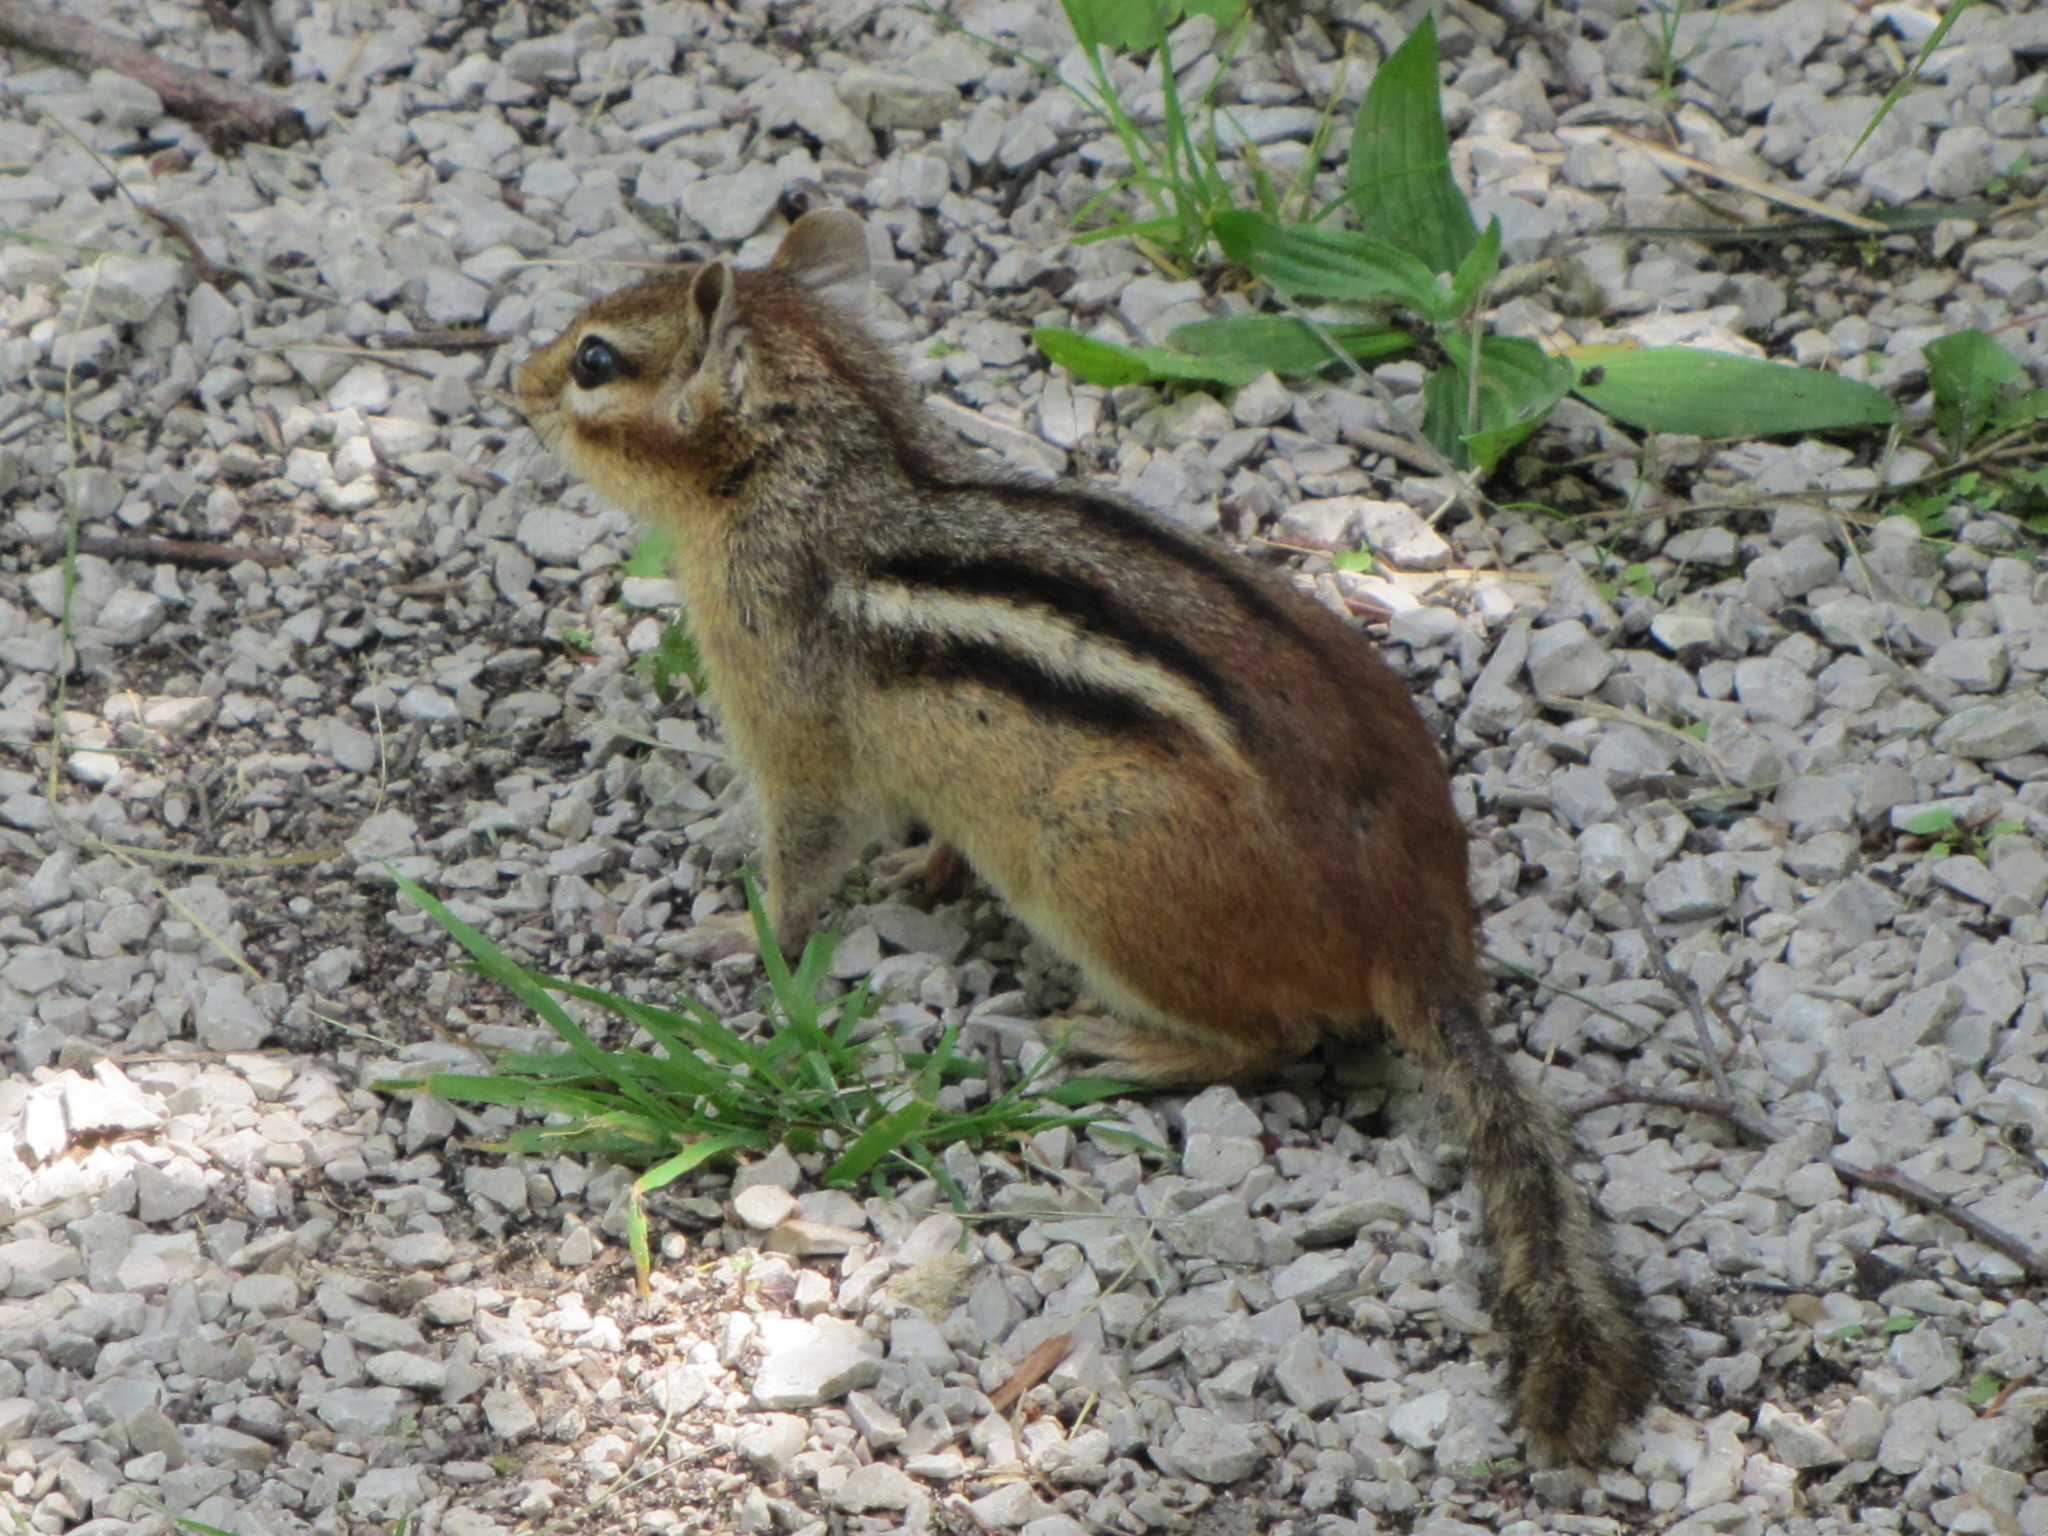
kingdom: Animalia
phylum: Chordata
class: Mammalia
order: Rodentia
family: Sciuridae
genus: Tamias
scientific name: Tamias striatus
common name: Eastern chipmunk
